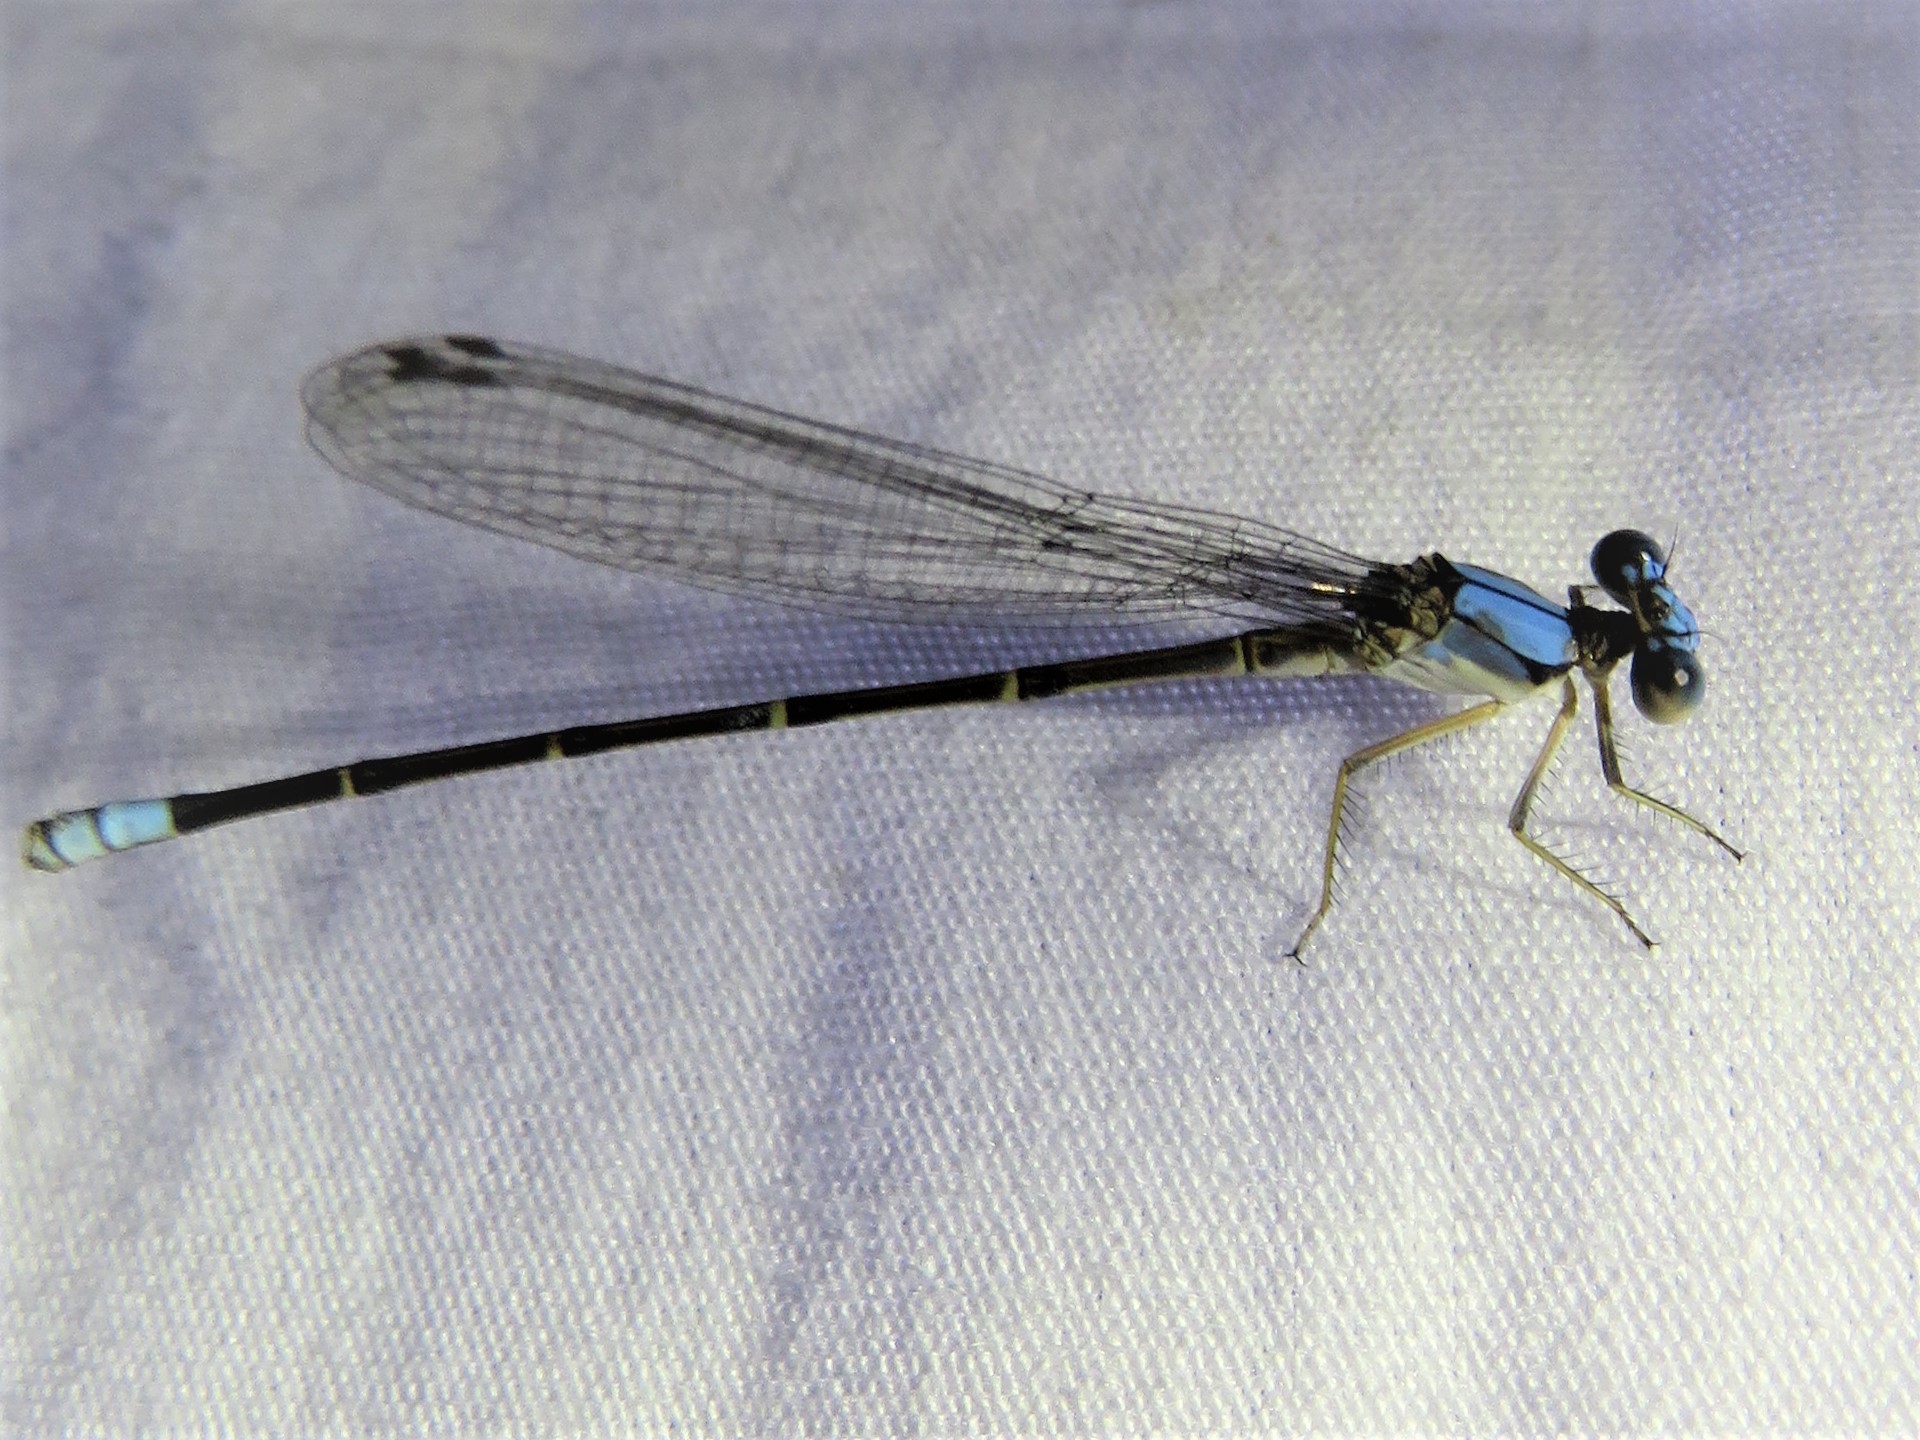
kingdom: Animalia
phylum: Arthropoda
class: Insecta
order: Odonata
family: Coenagrionidae
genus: Argia
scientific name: Argia apicalis
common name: Blue-fronted dancer
